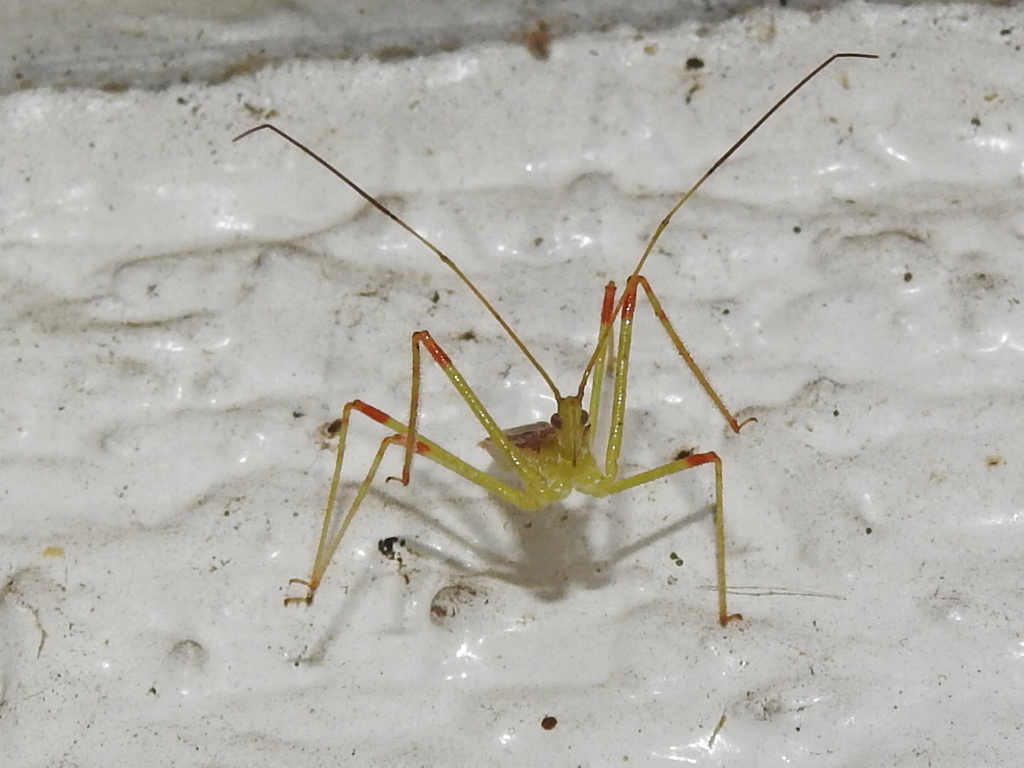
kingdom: Animalia
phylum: Arthropoda
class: Insecta
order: Hemiptera
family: Reduviidae
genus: Zelus
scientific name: Zelus luridus
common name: Pale green assassin bug
